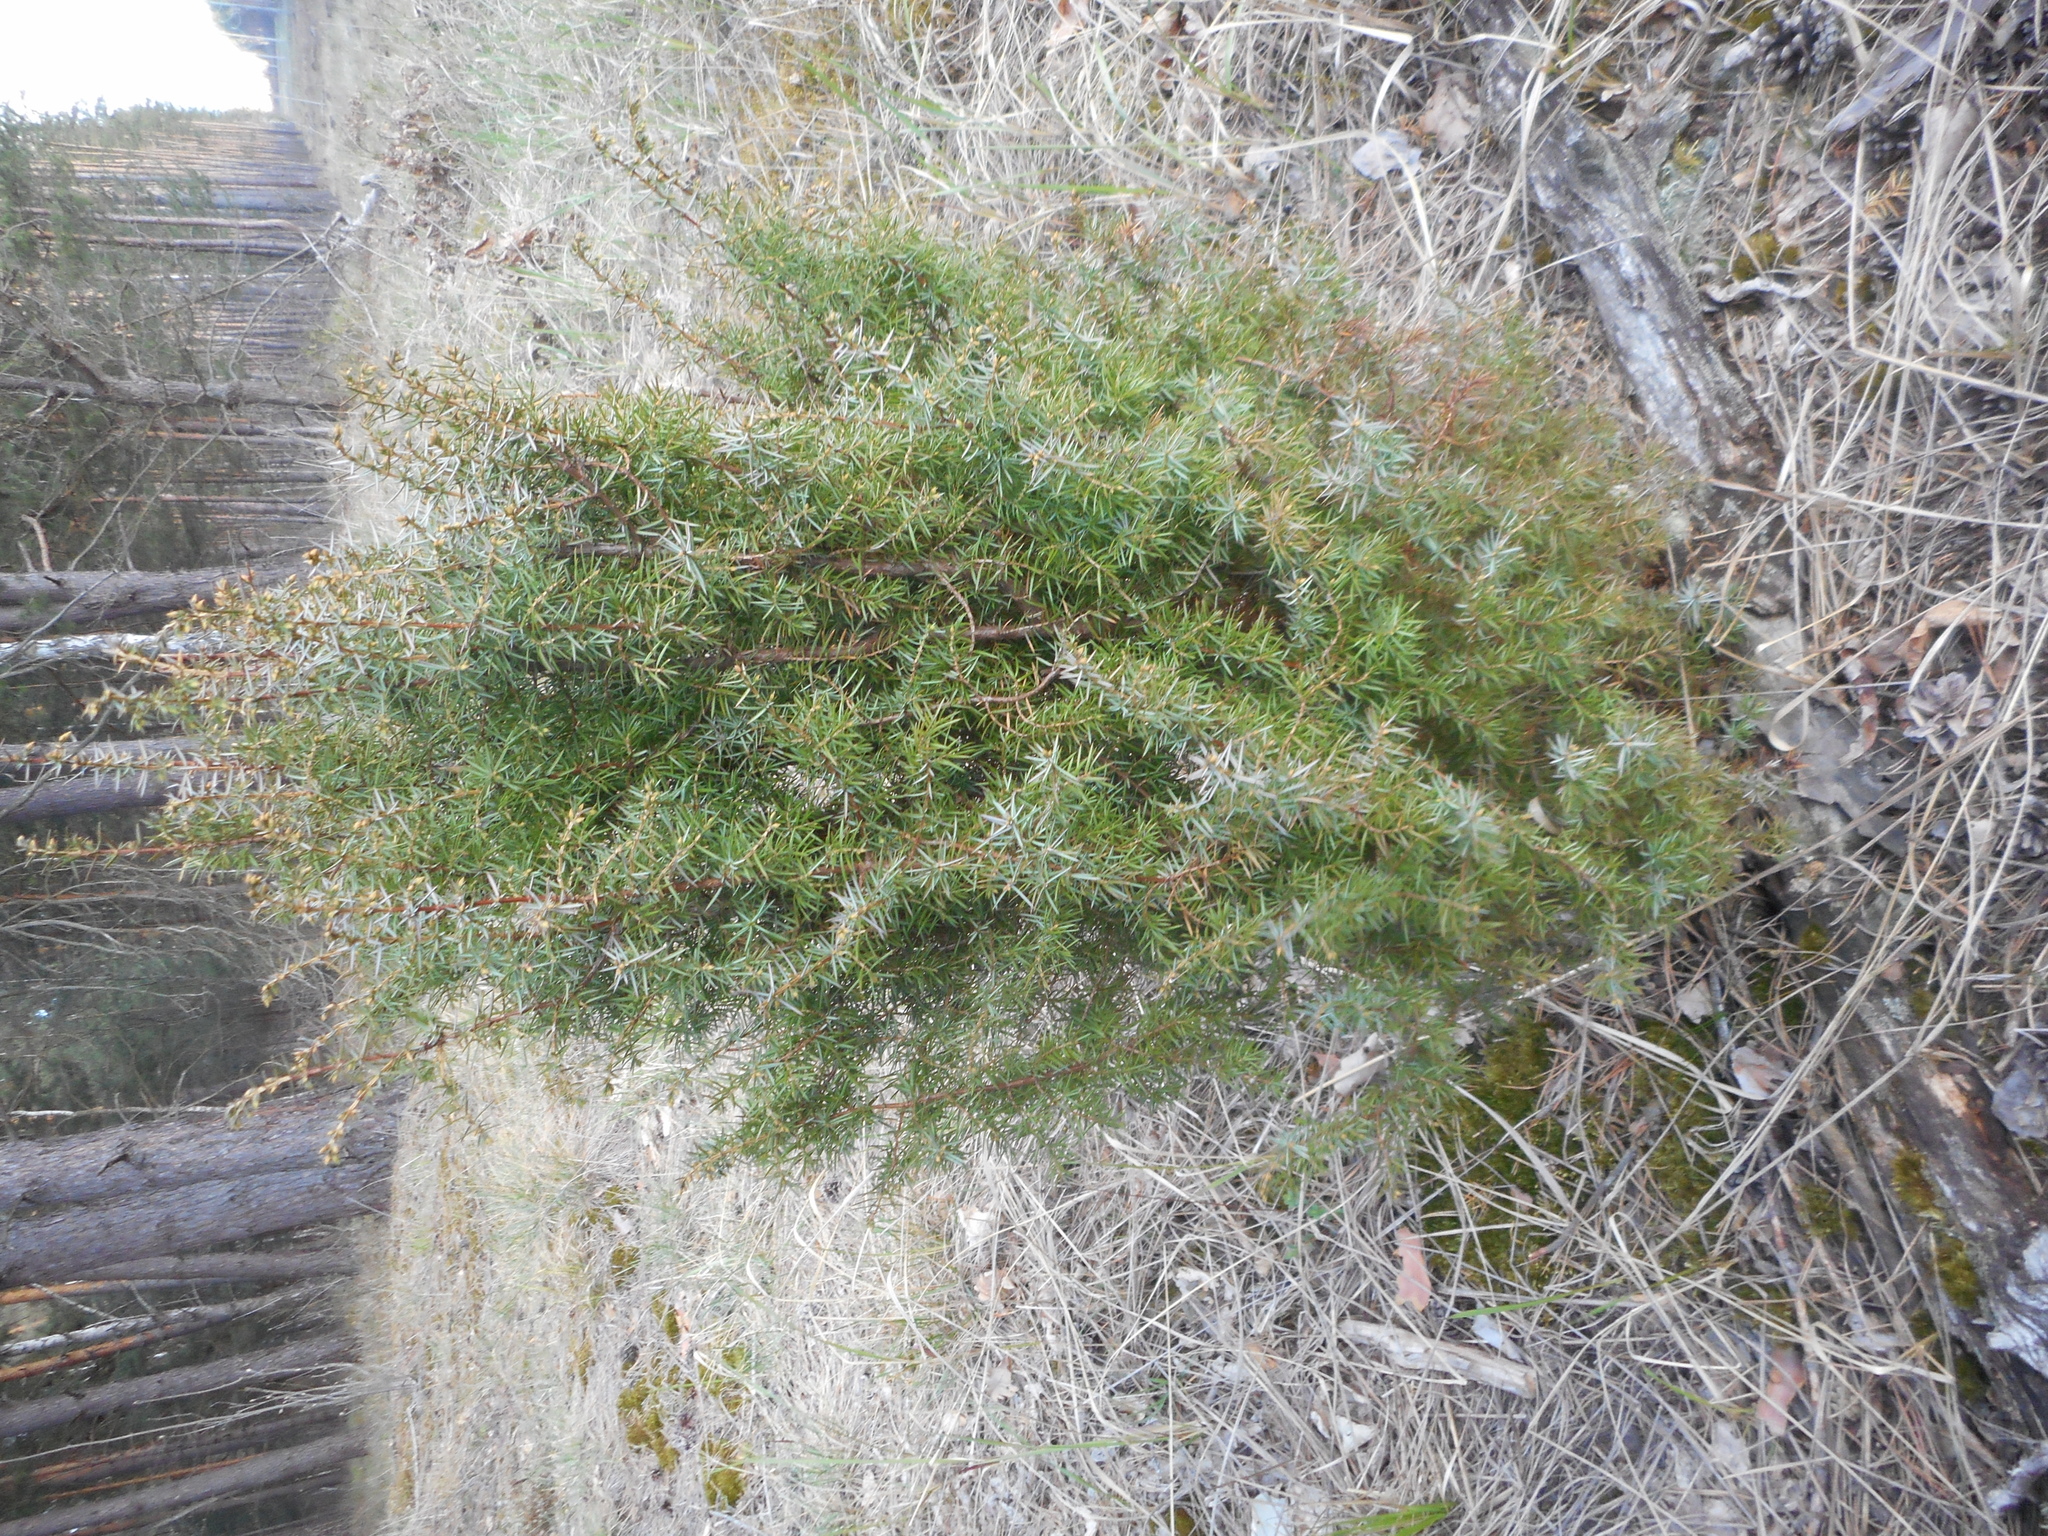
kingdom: Plantae
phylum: Tracheophyta
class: Pinopsida
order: Pinales
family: Cupressaceae
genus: Juniperus
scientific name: Juniperus communis
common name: Common juniper
